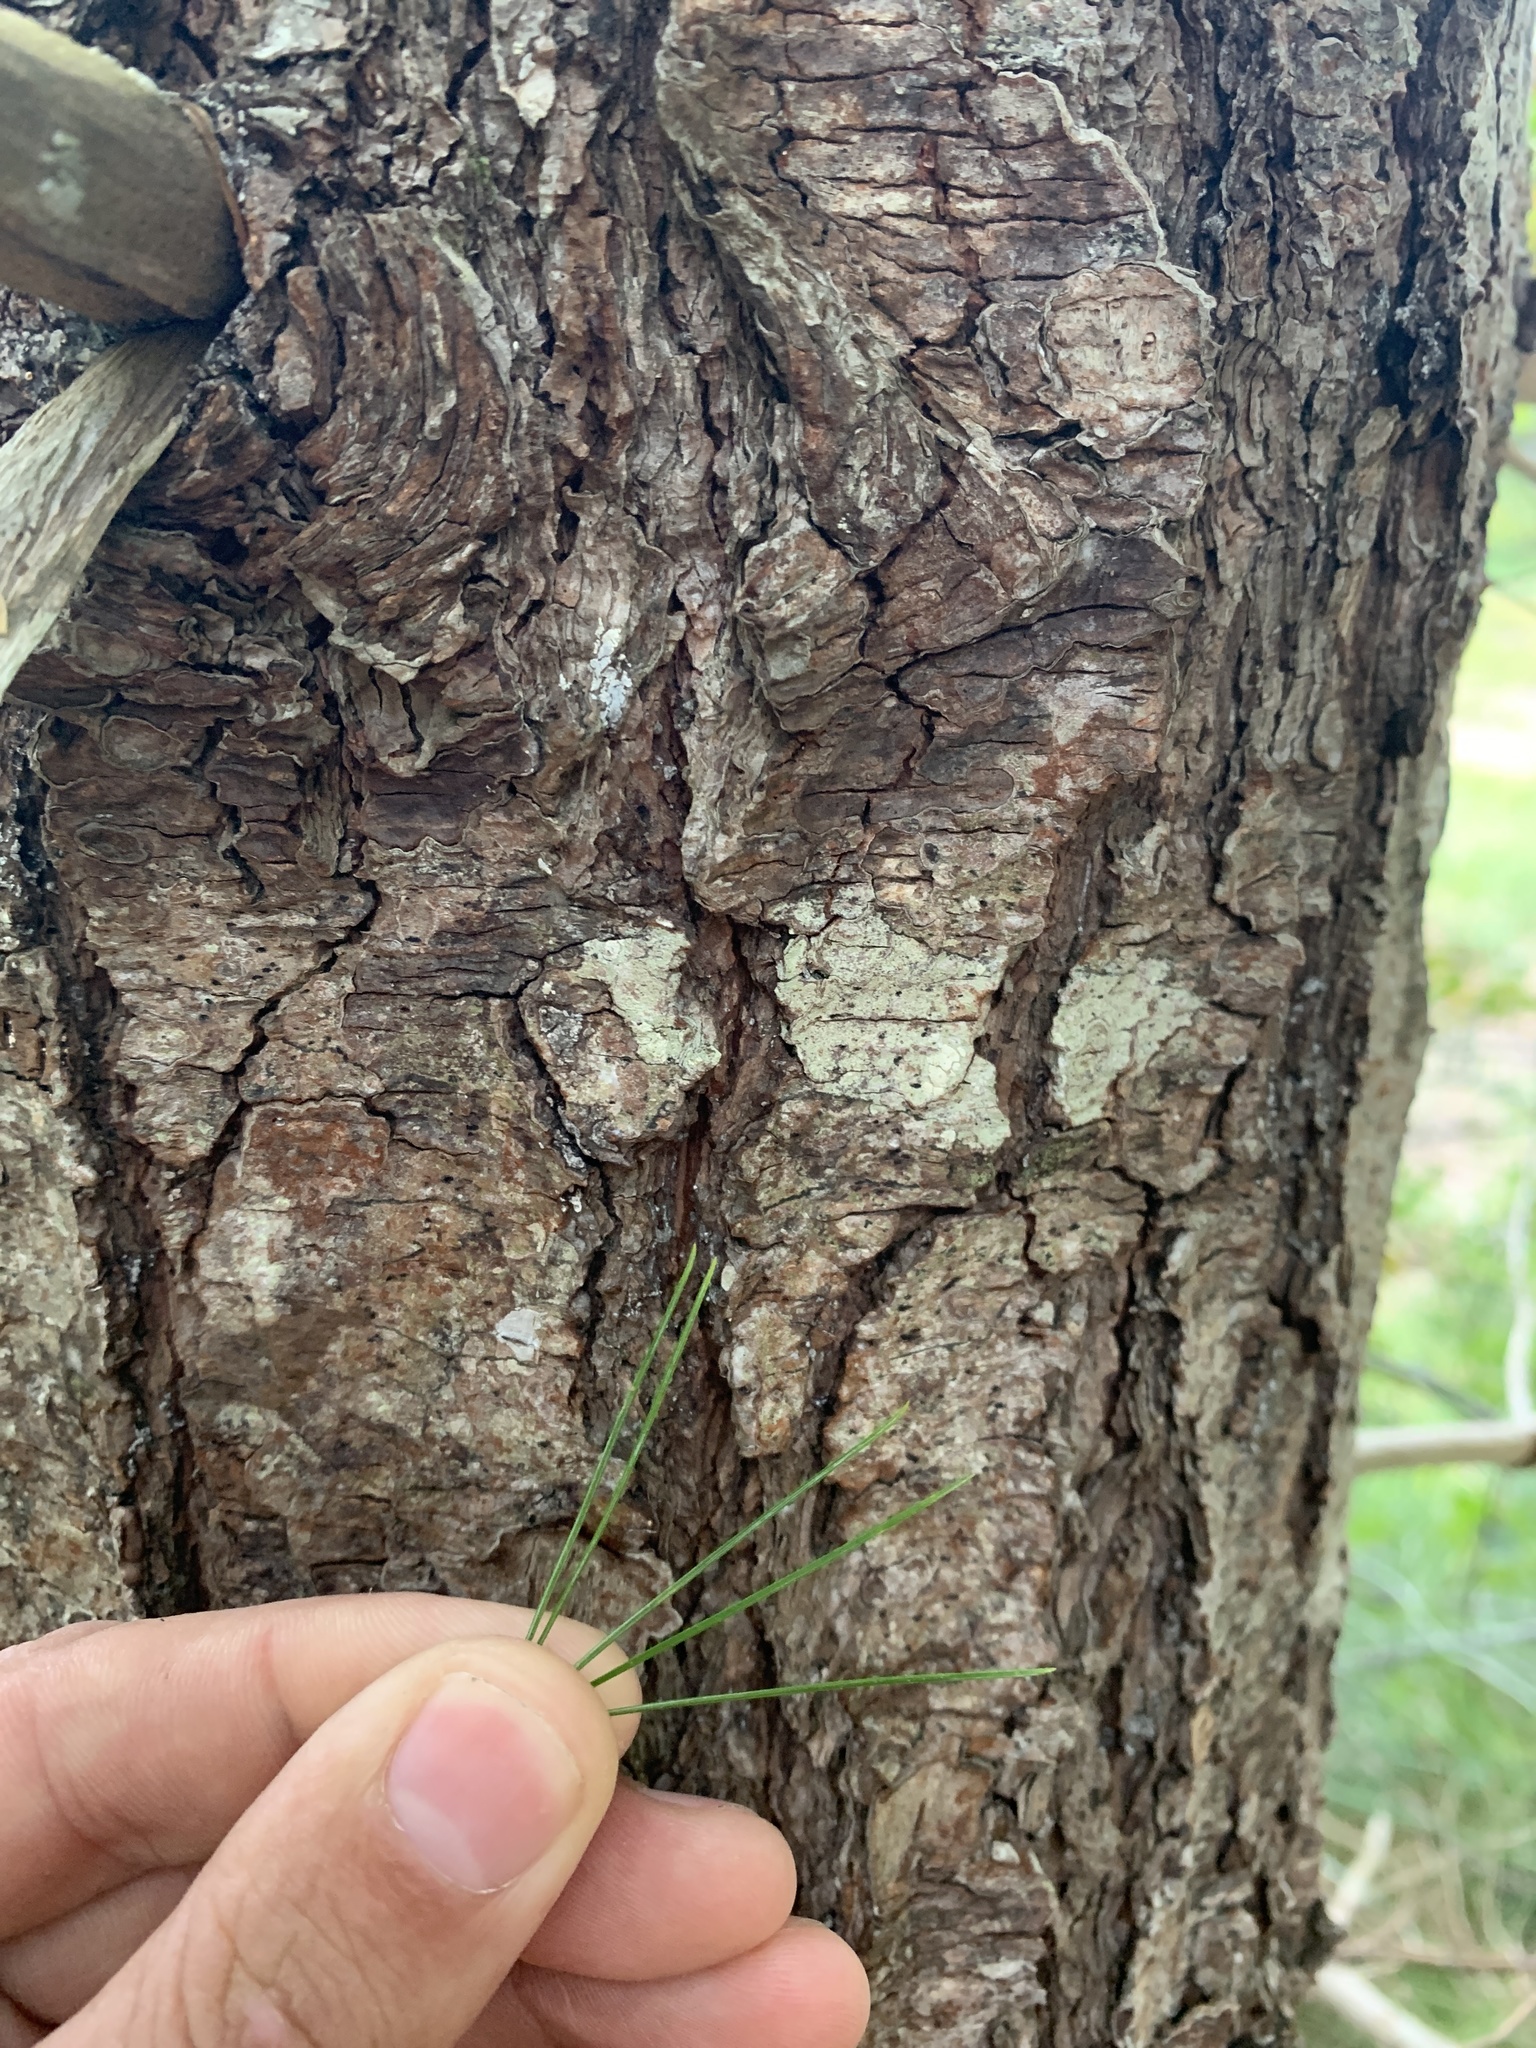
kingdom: Plantae
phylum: Tracheophyta
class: Pinopsida
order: Pinales
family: Pinaceae
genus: Pinus
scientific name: Pinus strobus
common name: Weymouth pine
